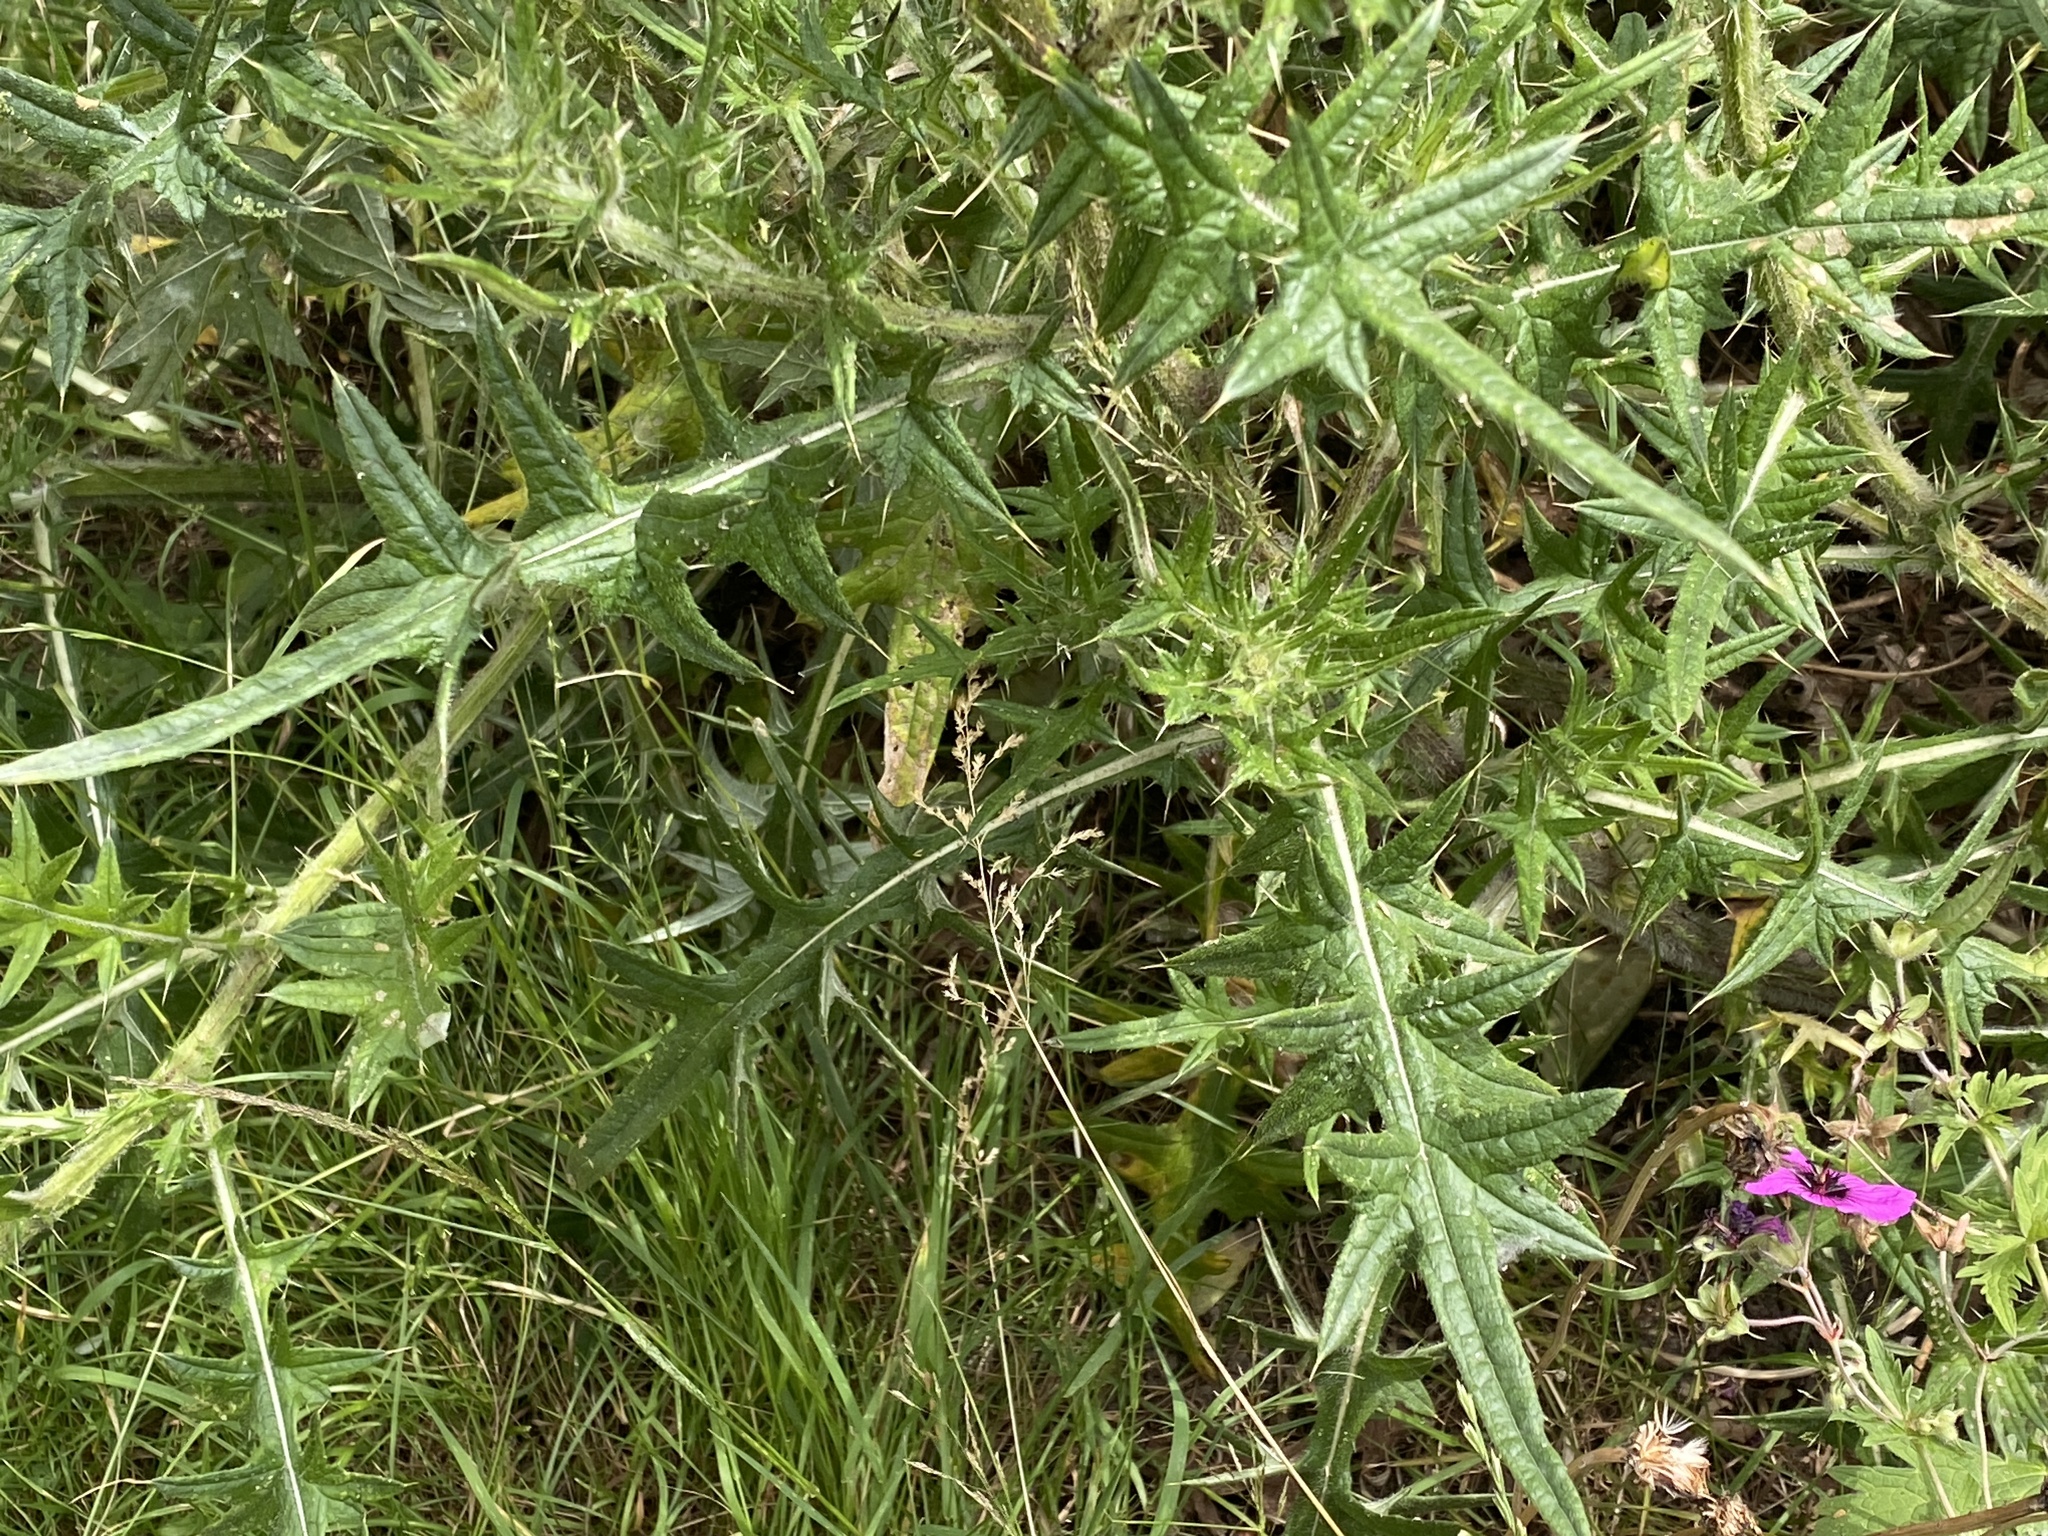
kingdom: Plantae
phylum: Tracheophyta
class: Magnoliopsida
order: Asterales
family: Asteraceae
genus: Cirsium
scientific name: Cirsium vulgare
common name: Bull thistle
